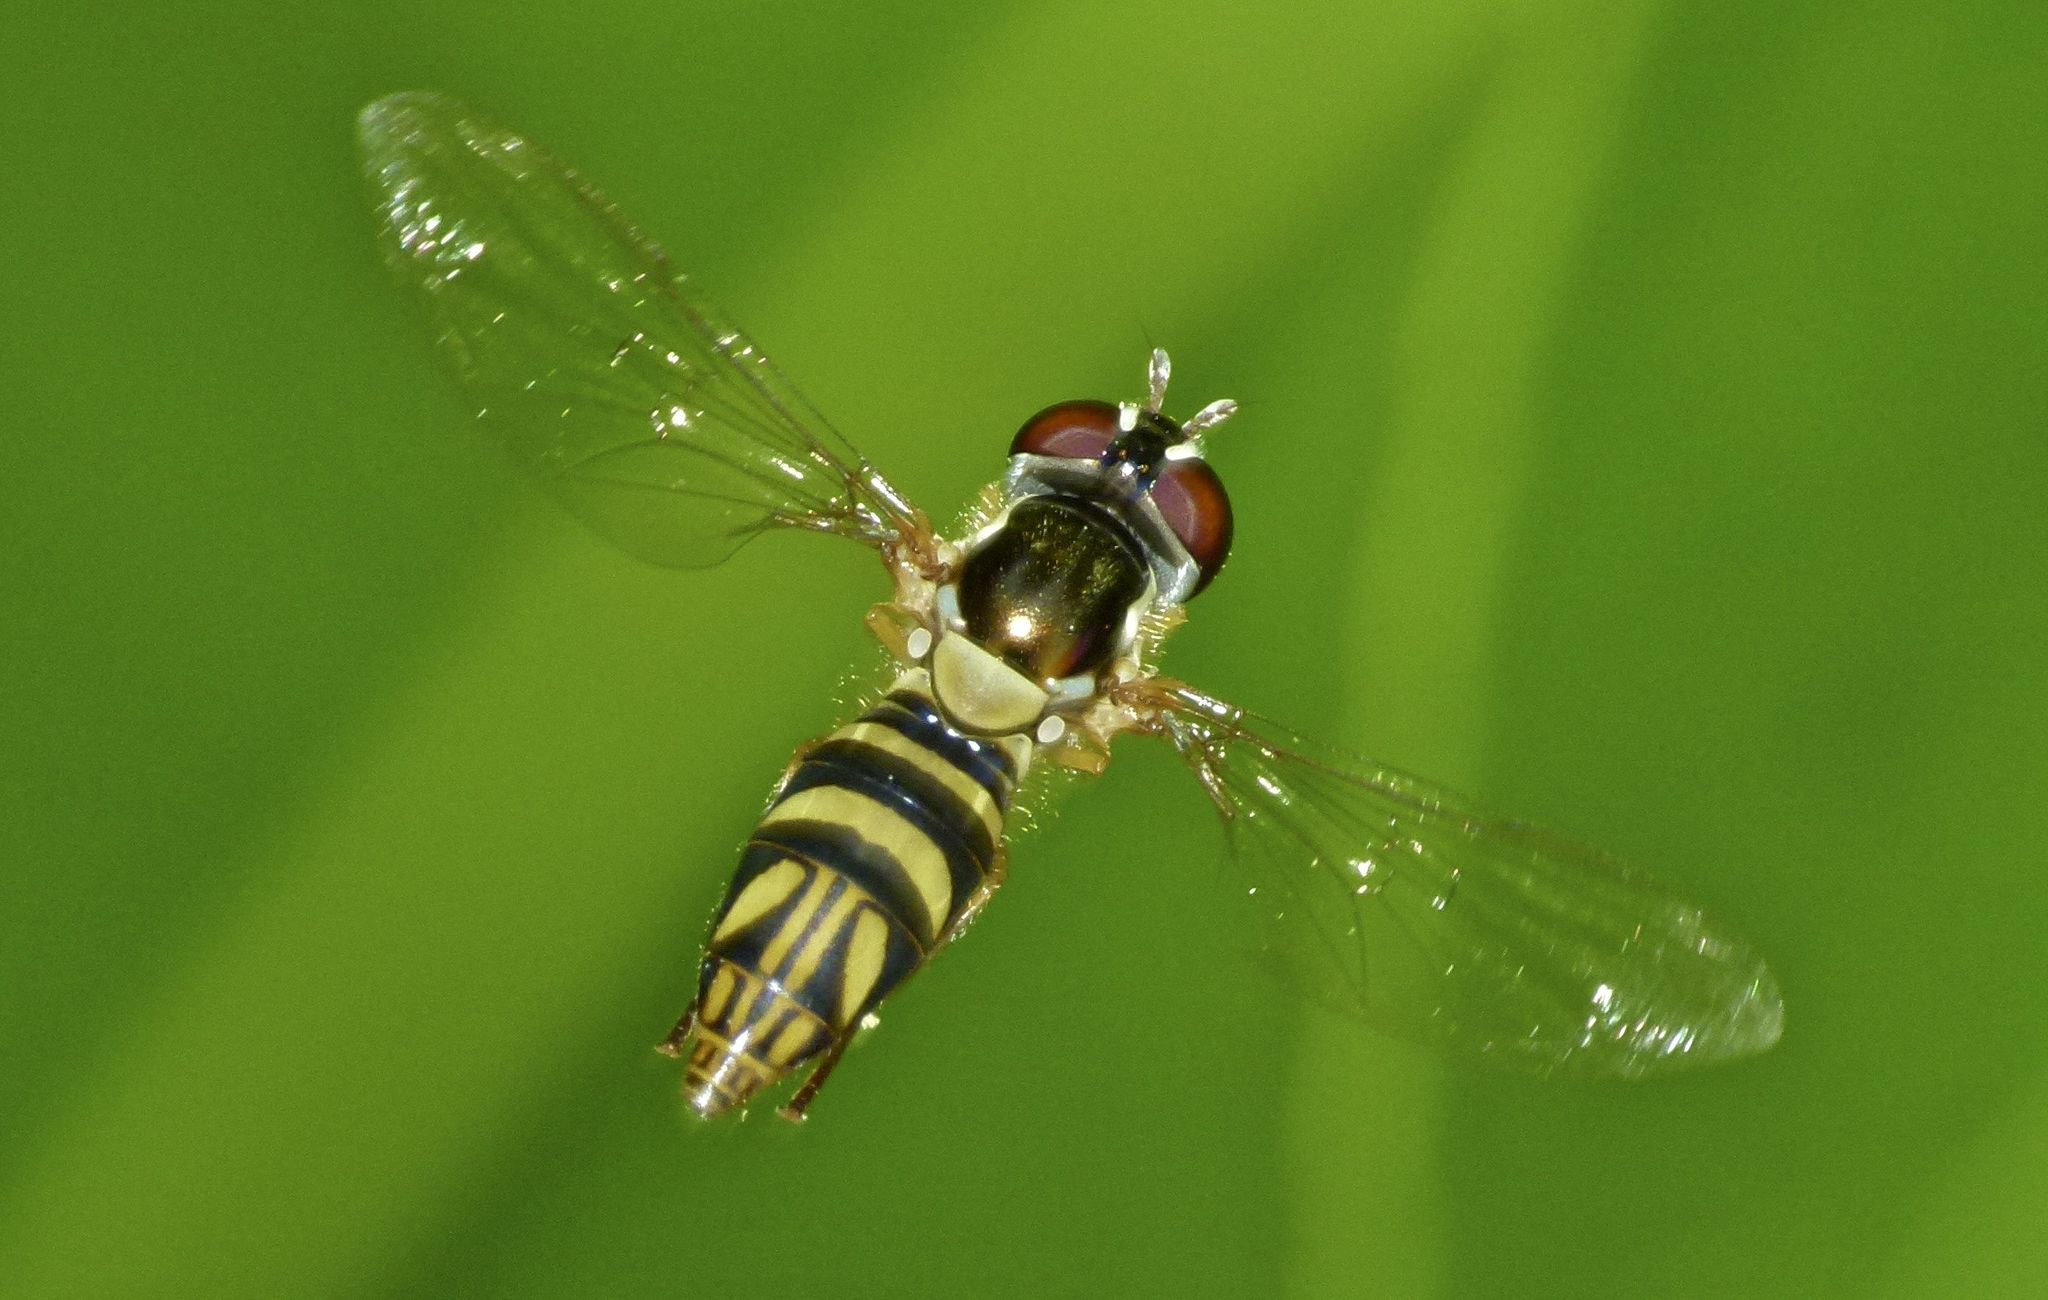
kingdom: Animalia
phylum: Arthropoda
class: Insecta
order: Diptera
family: Syrphidae
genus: Allograpta
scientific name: Allograpta obliqua
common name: Common oblique syrphid
